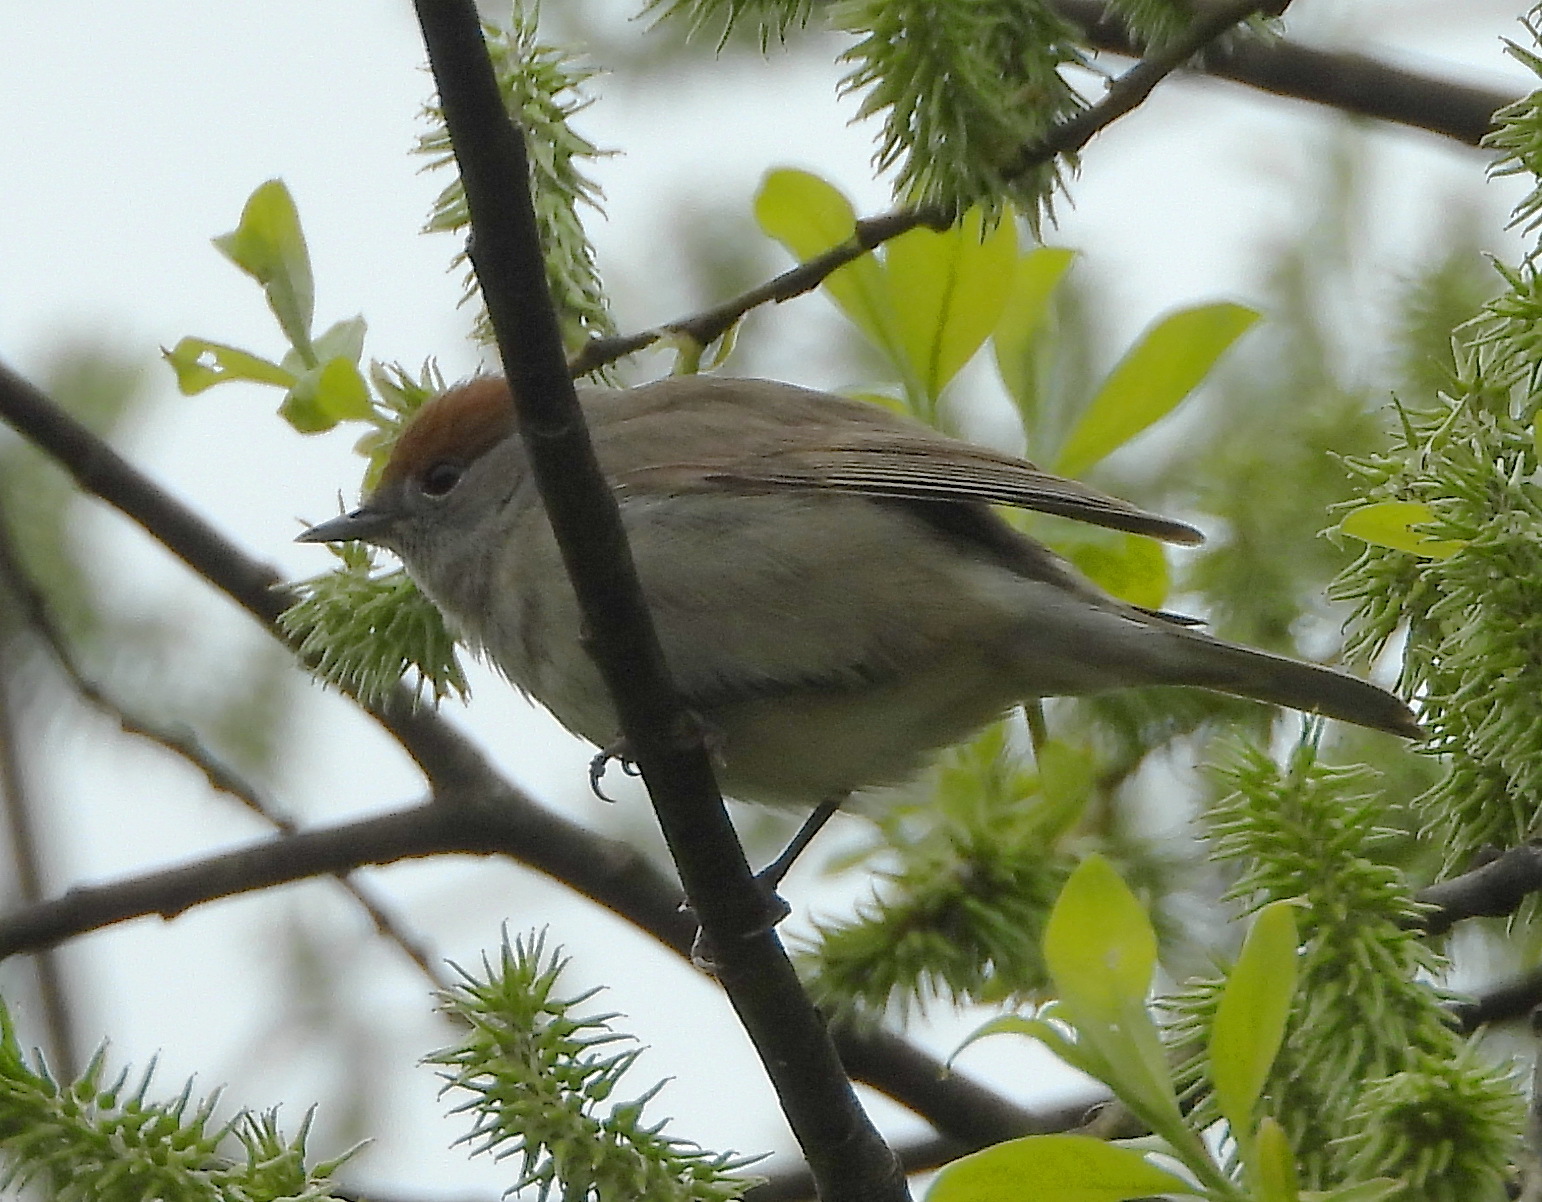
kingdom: Animalia
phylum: Chordata
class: Aves
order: Passeriformes
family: Sylviidae
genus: Sylvia
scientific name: Sylvia atricapilla
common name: Eurasian blackcap
